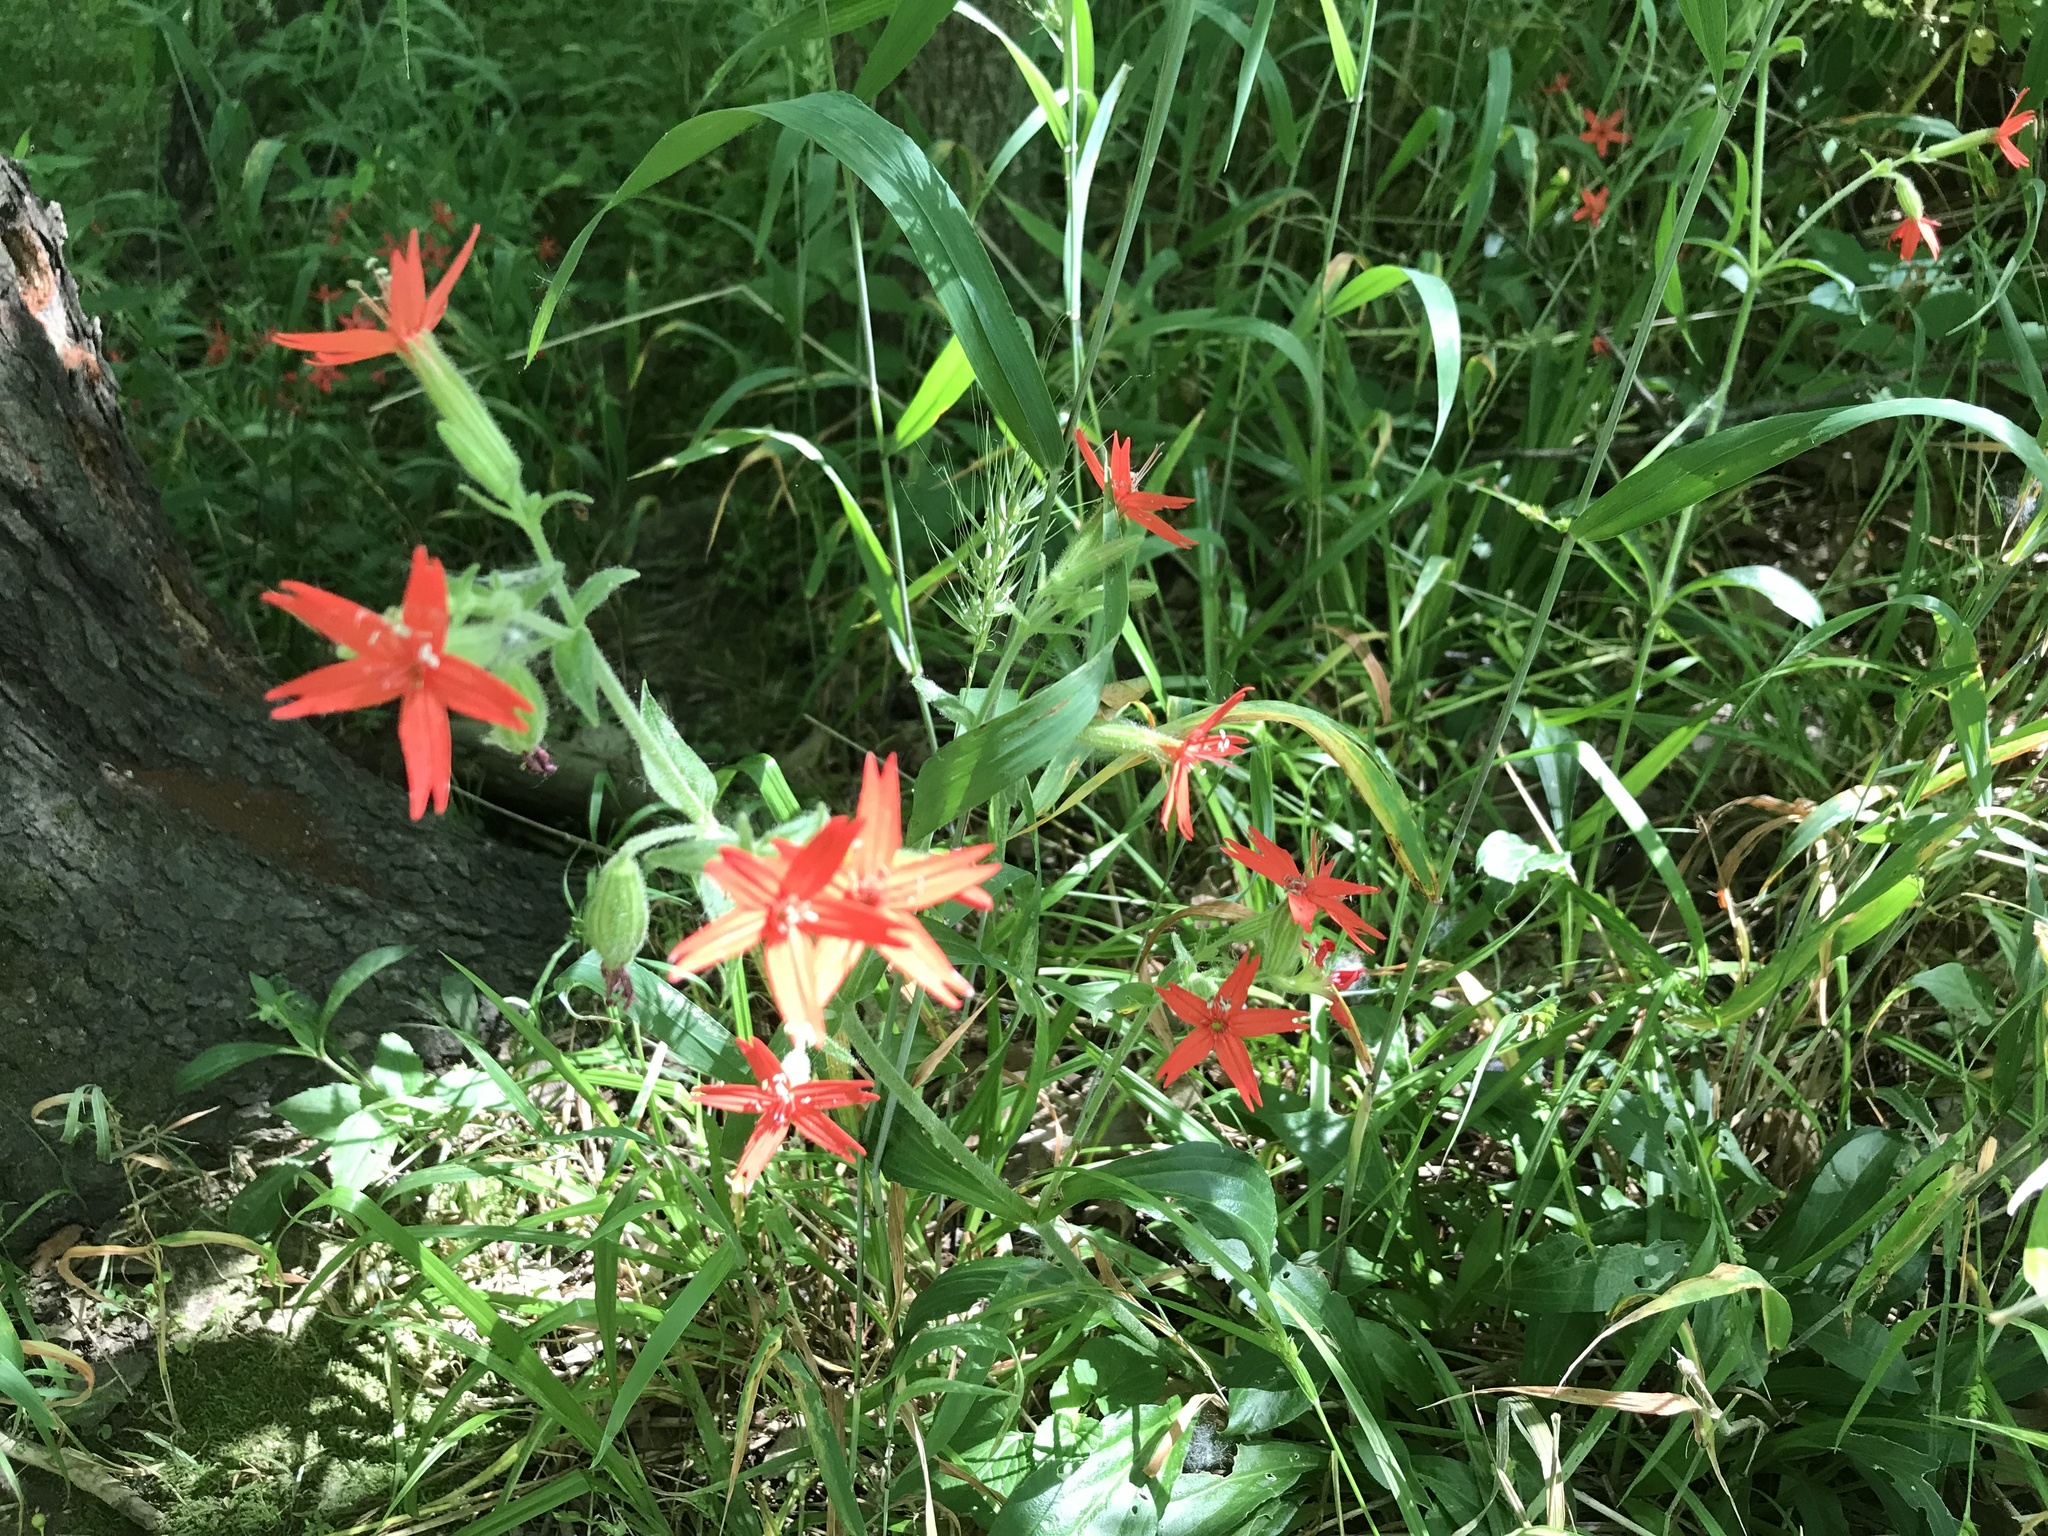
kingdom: Plantae
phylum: Tracheophyta
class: Magnoliopsida
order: Caryophyllales
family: Caryophyllaceae
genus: Silene
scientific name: Silene virginica
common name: Fire-pink
